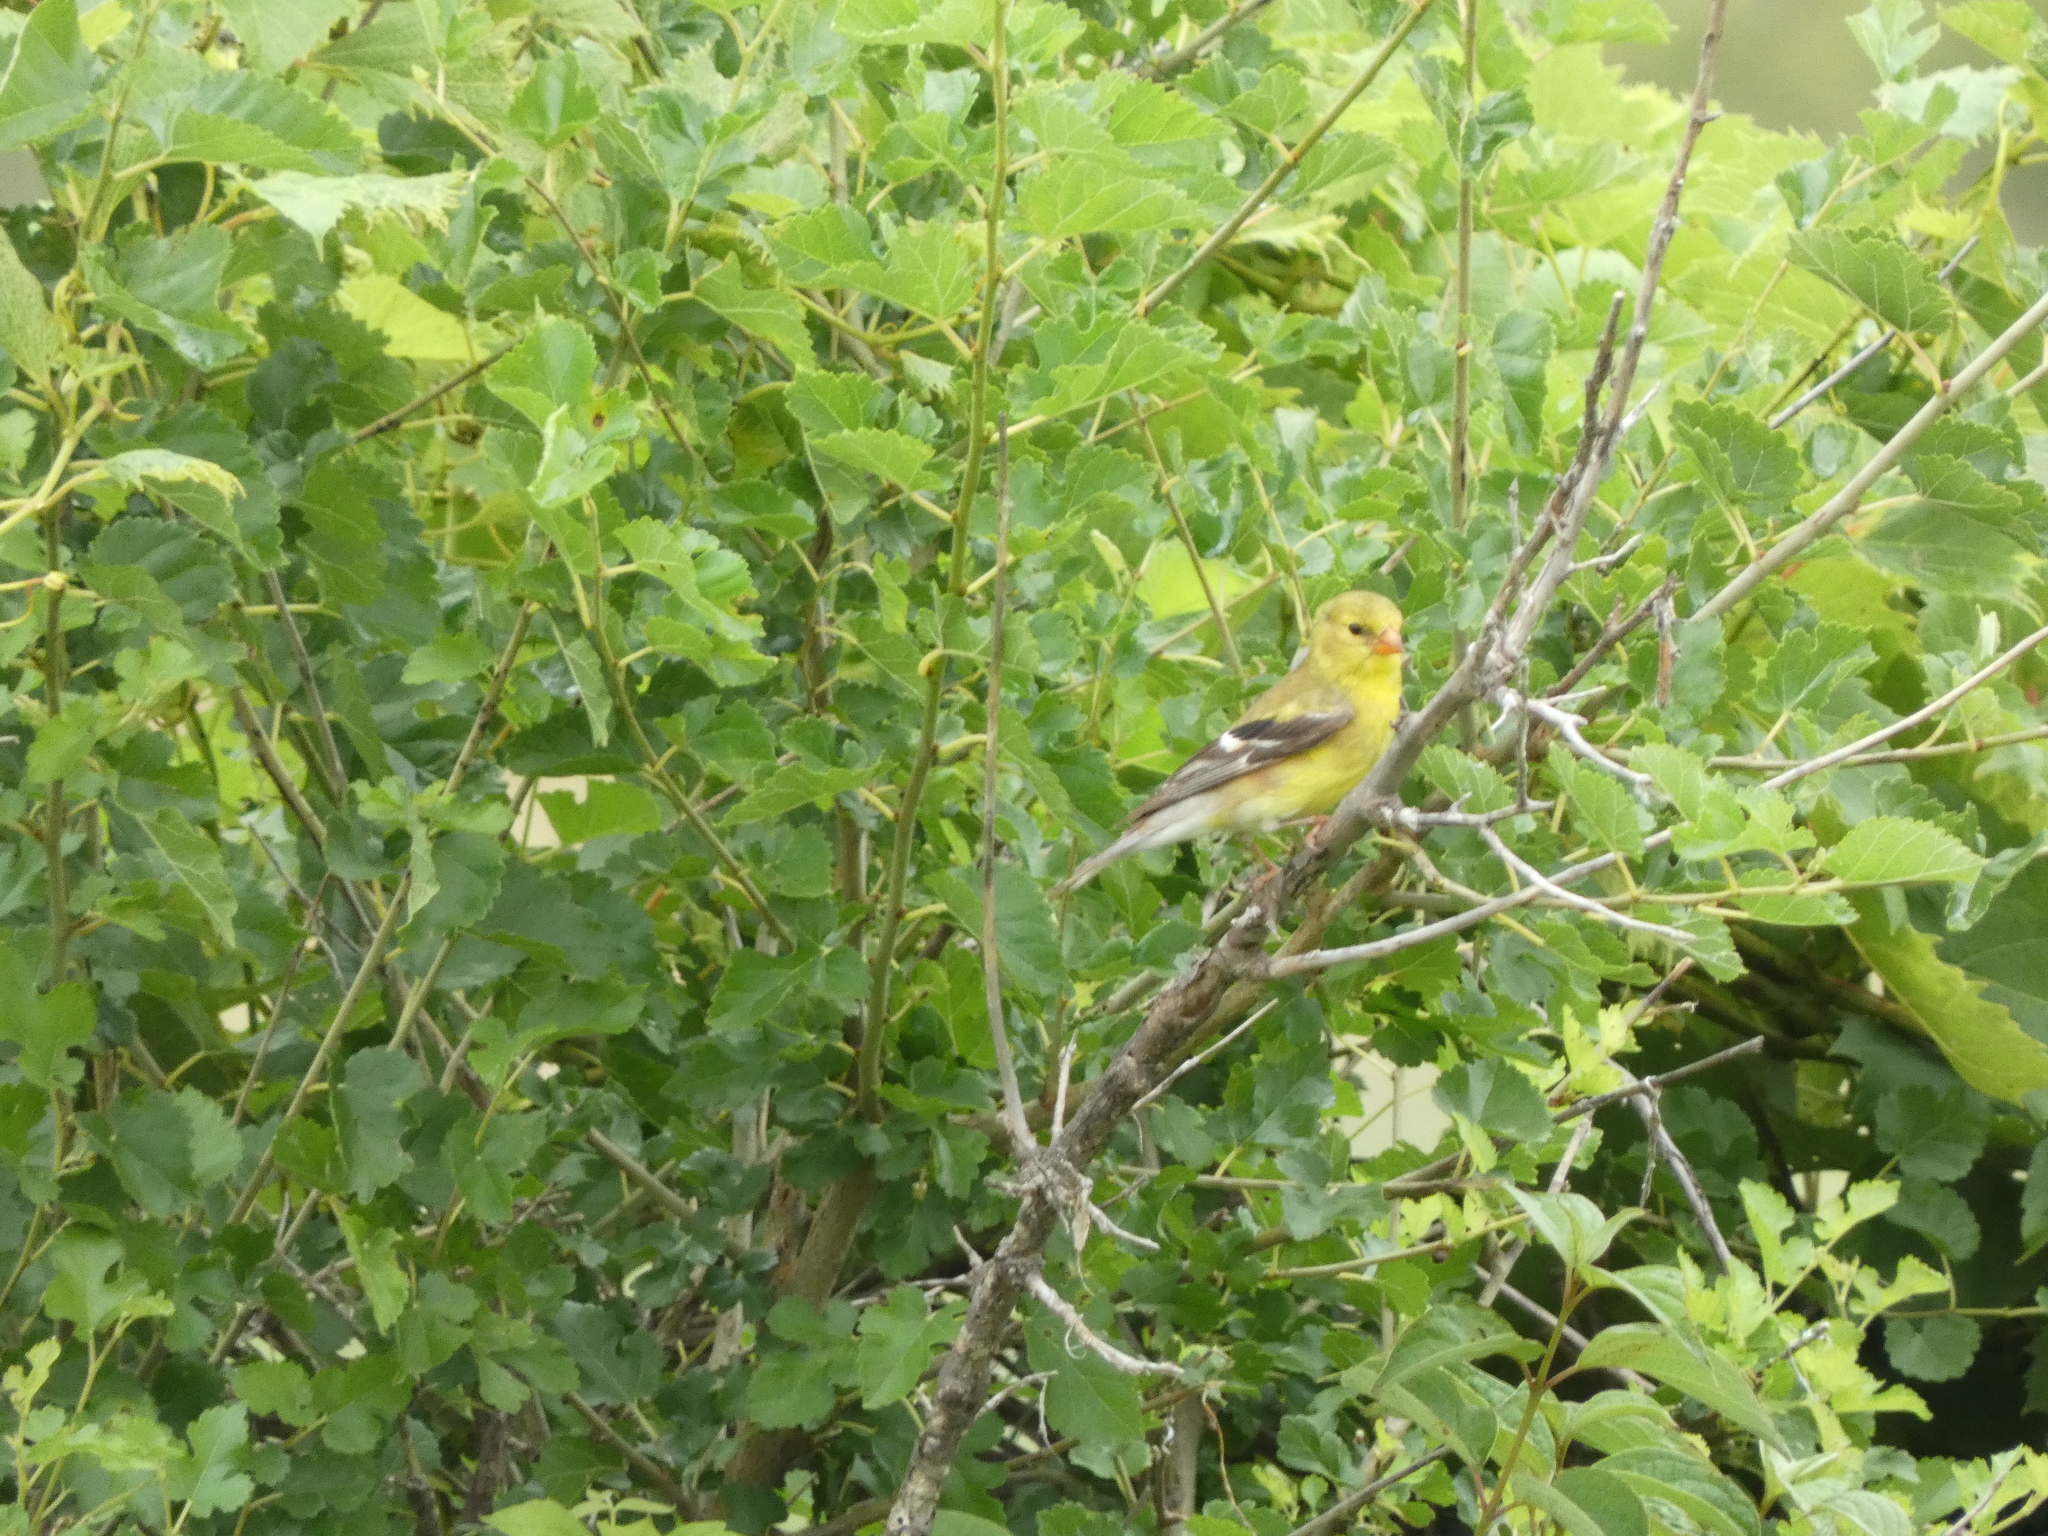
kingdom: Animalia
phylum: Chordata
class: Aves
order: Passeriformes
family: Fringillidae
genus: Spinus
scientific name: Spinus tristis
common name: American goldfinch
